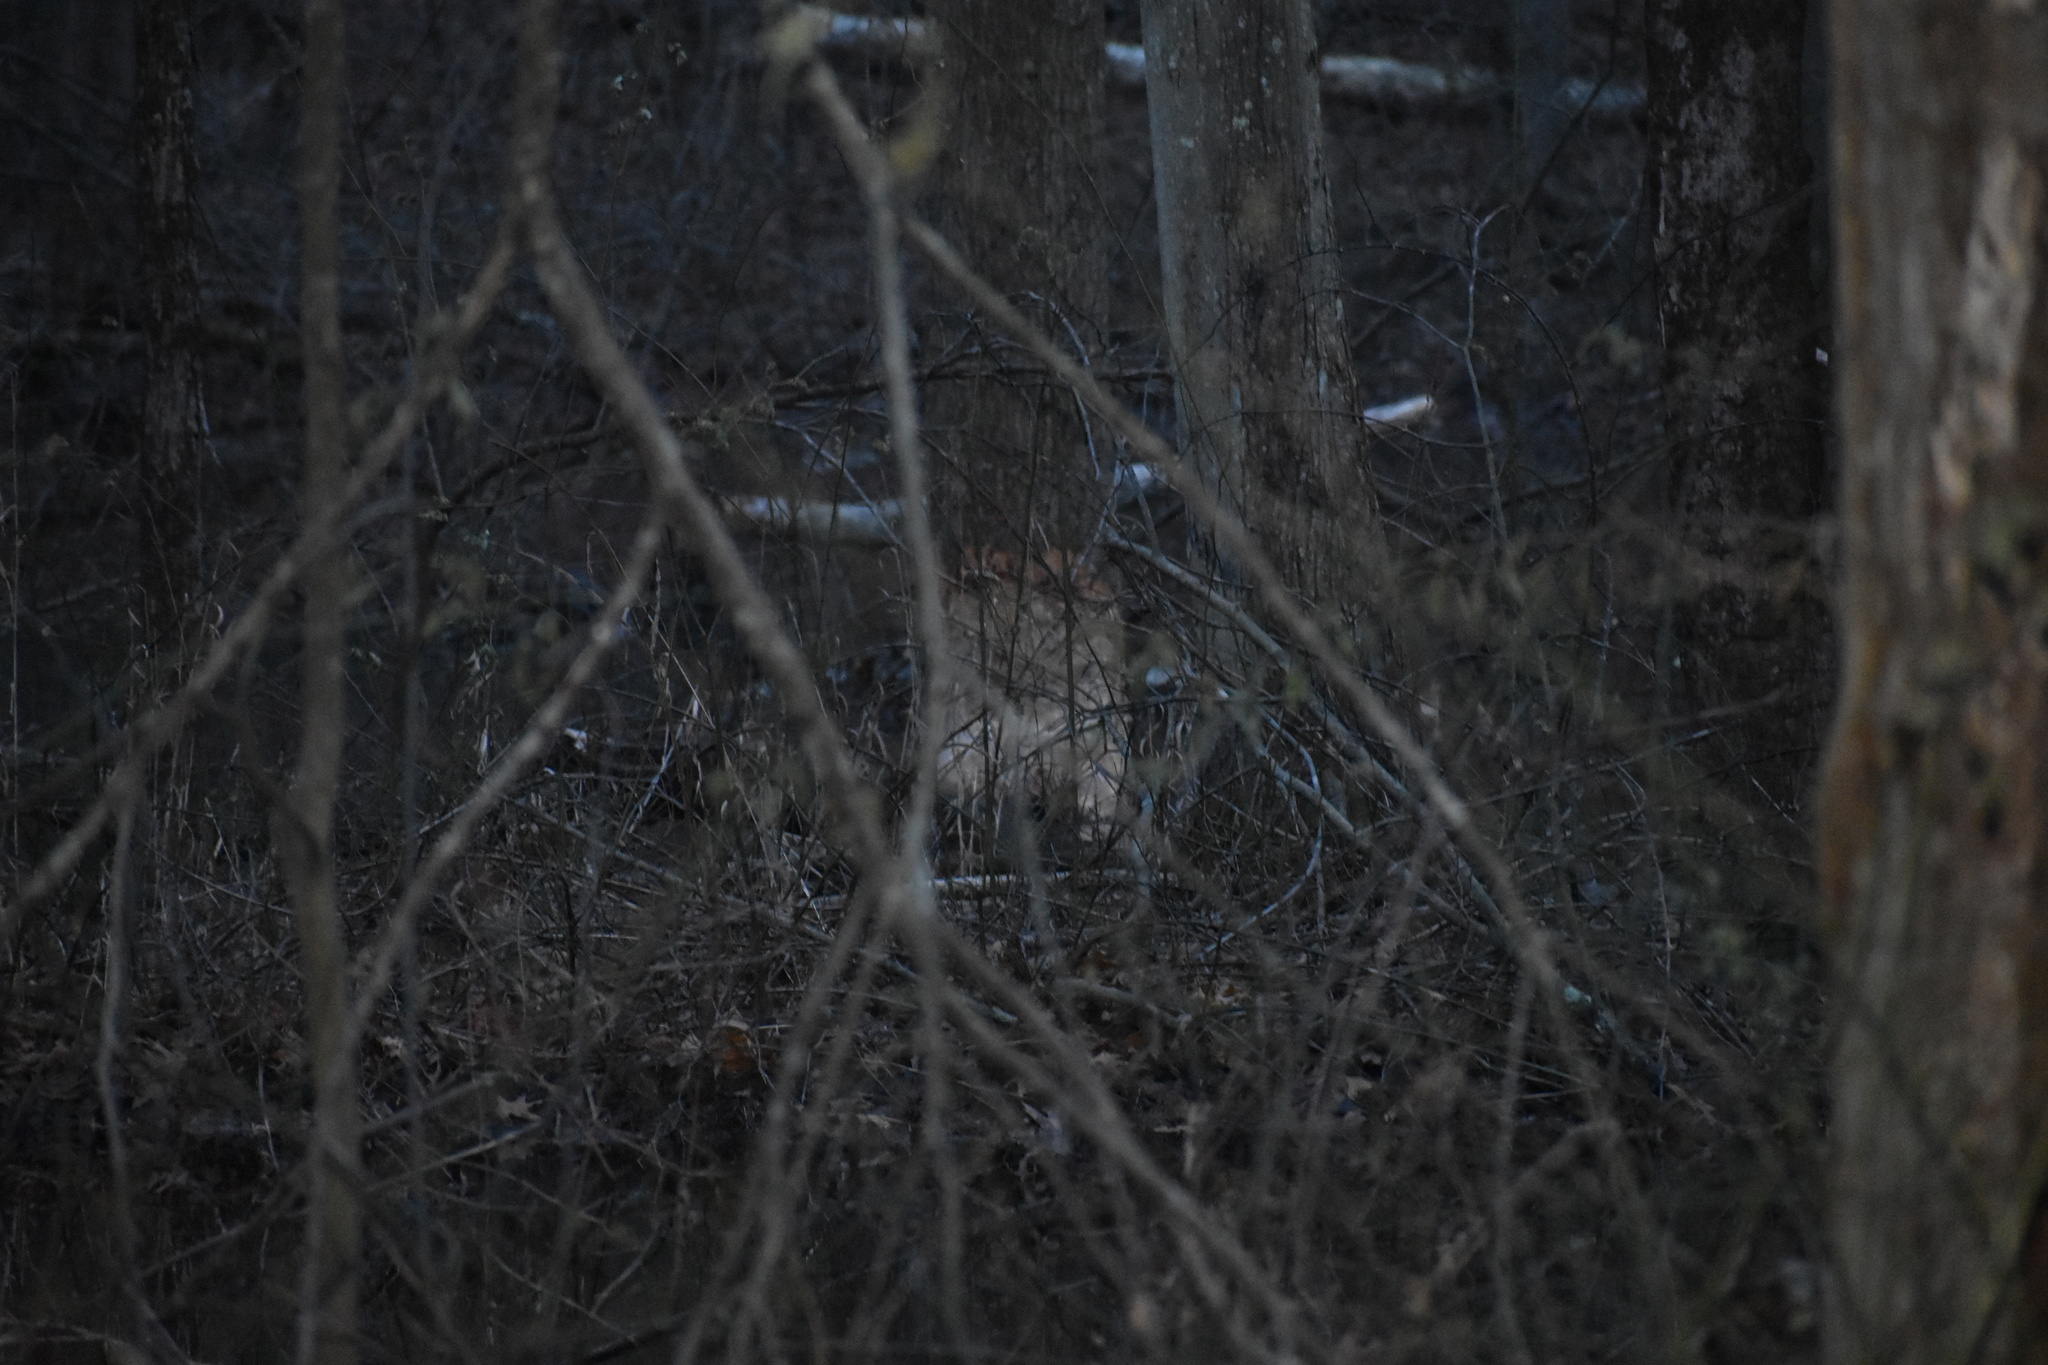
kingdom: Animalia
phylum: Chordata
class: Mammalia
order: Rodentia
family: Castoridae
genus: Castor
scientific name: Castor canadensis
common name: American beaver
